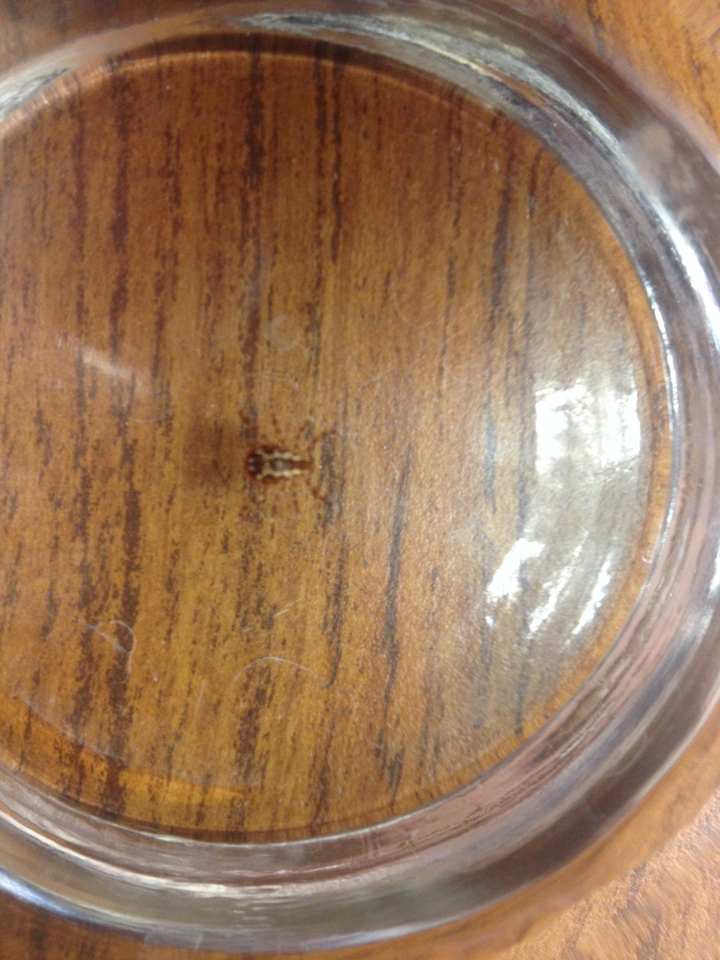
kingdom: Animalia
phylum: Arthropoda
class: Arachnida
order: Ixodida
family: Ixodidae
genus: Dermacentor
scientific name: Dermacentor variabilis
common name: American dog tick
